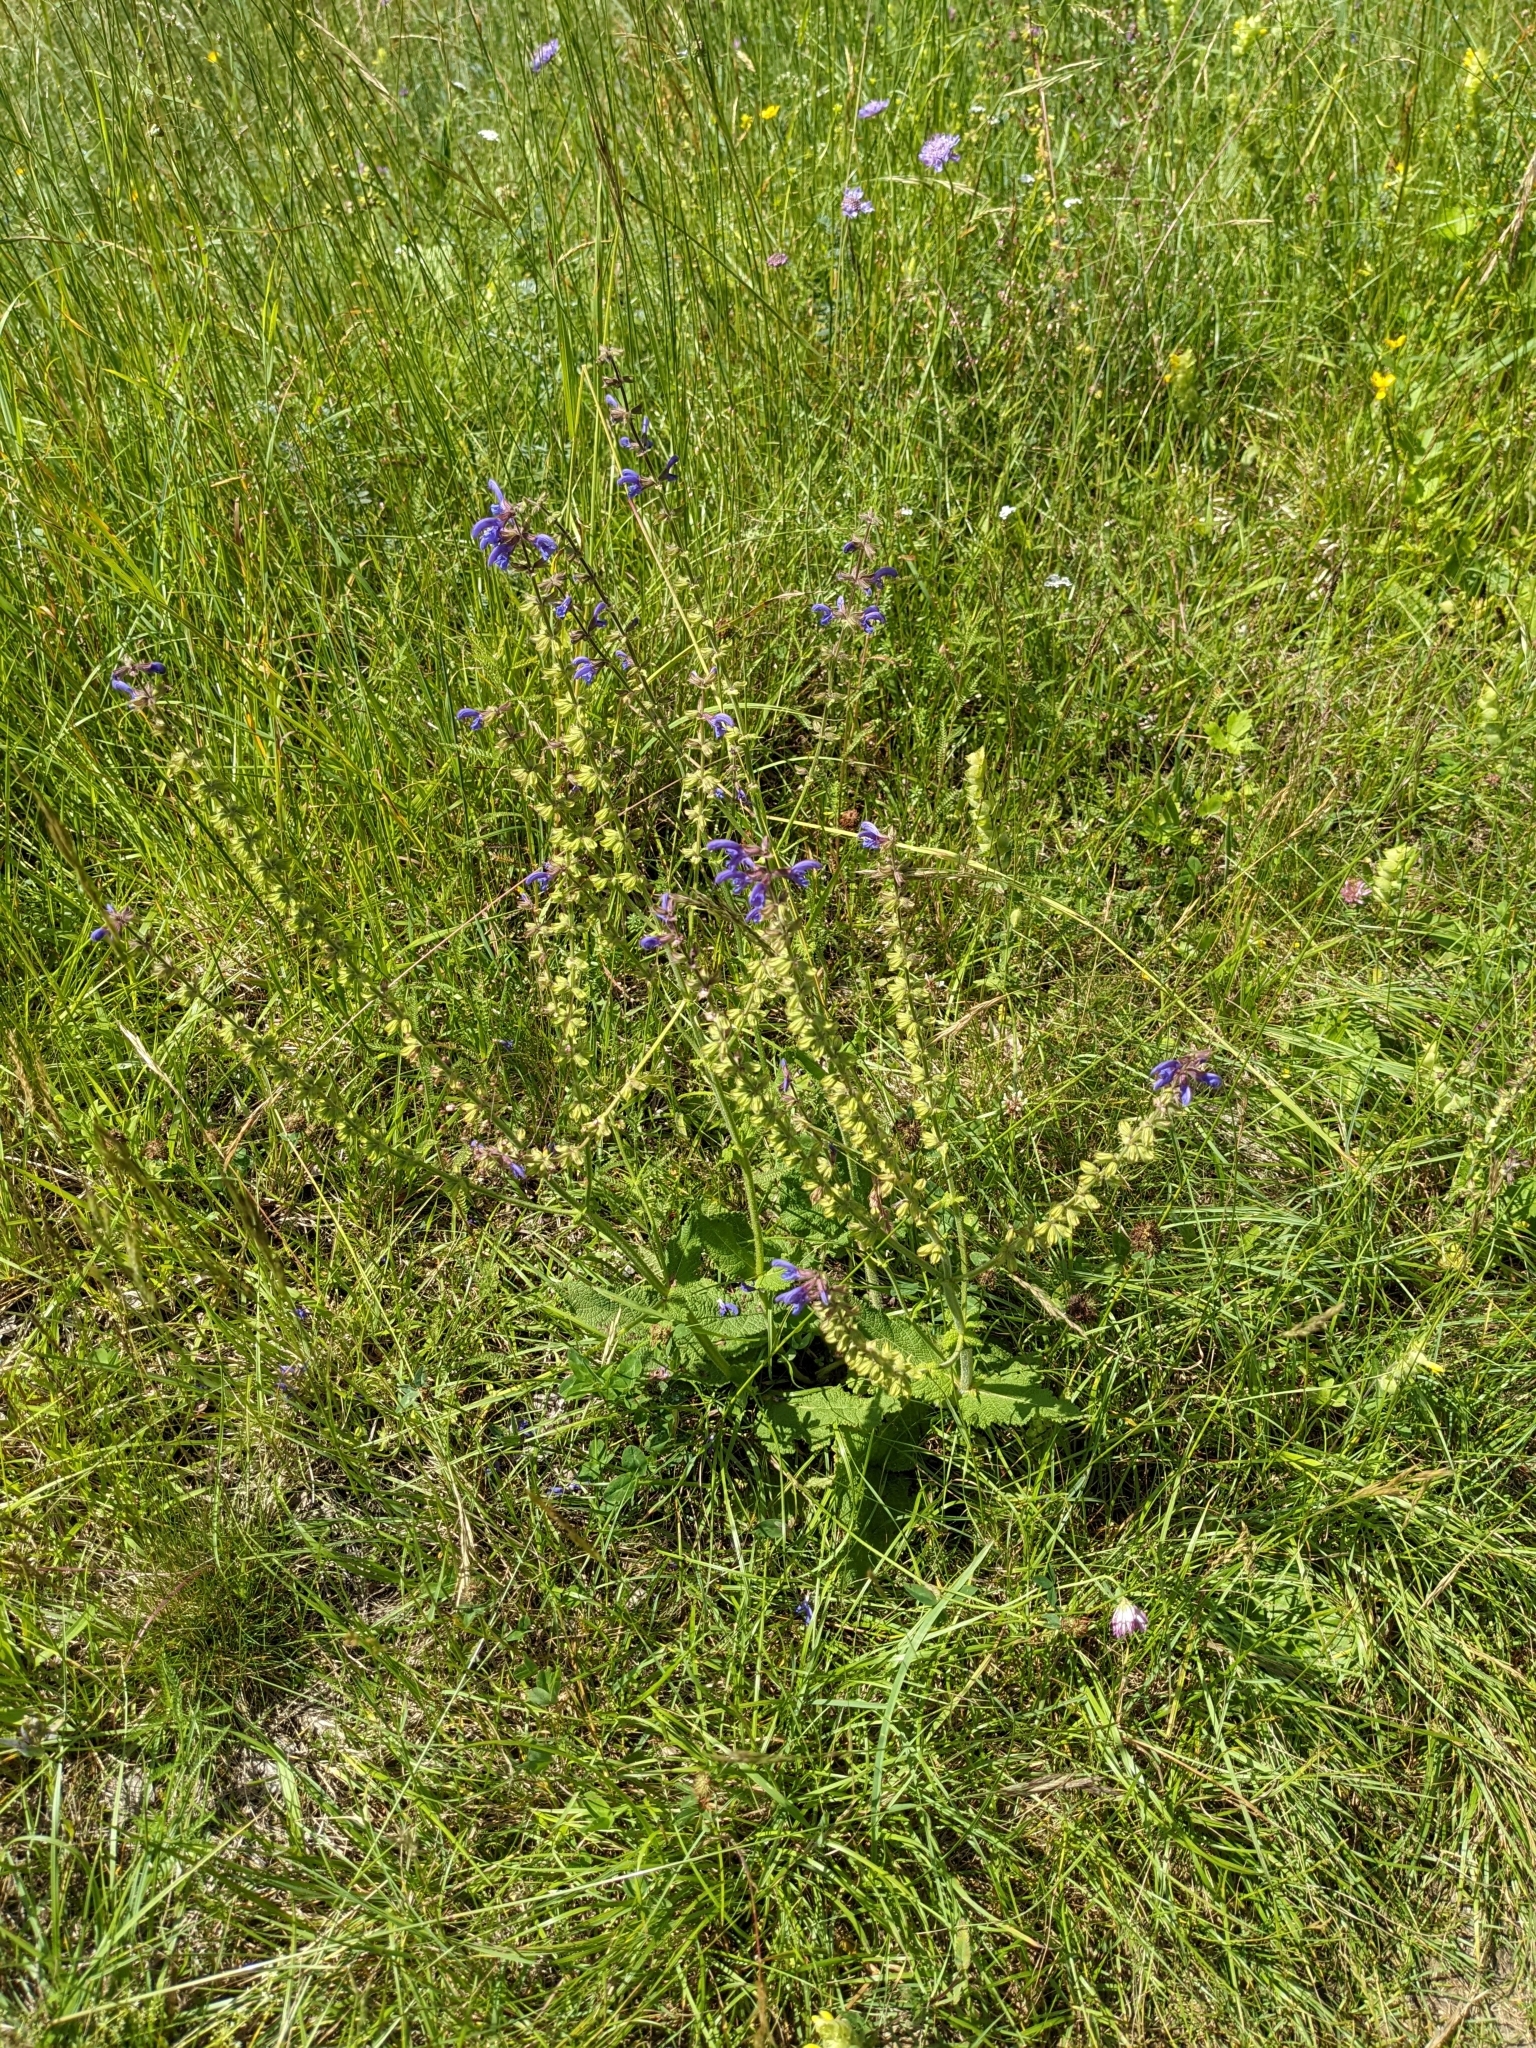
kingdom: Plantae
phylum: Tracheophyta
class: Magnoliopsida
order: Lamiales
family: Lamiaceae
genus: Salvia
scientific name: Salvia pratensis
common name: Meadow sage
